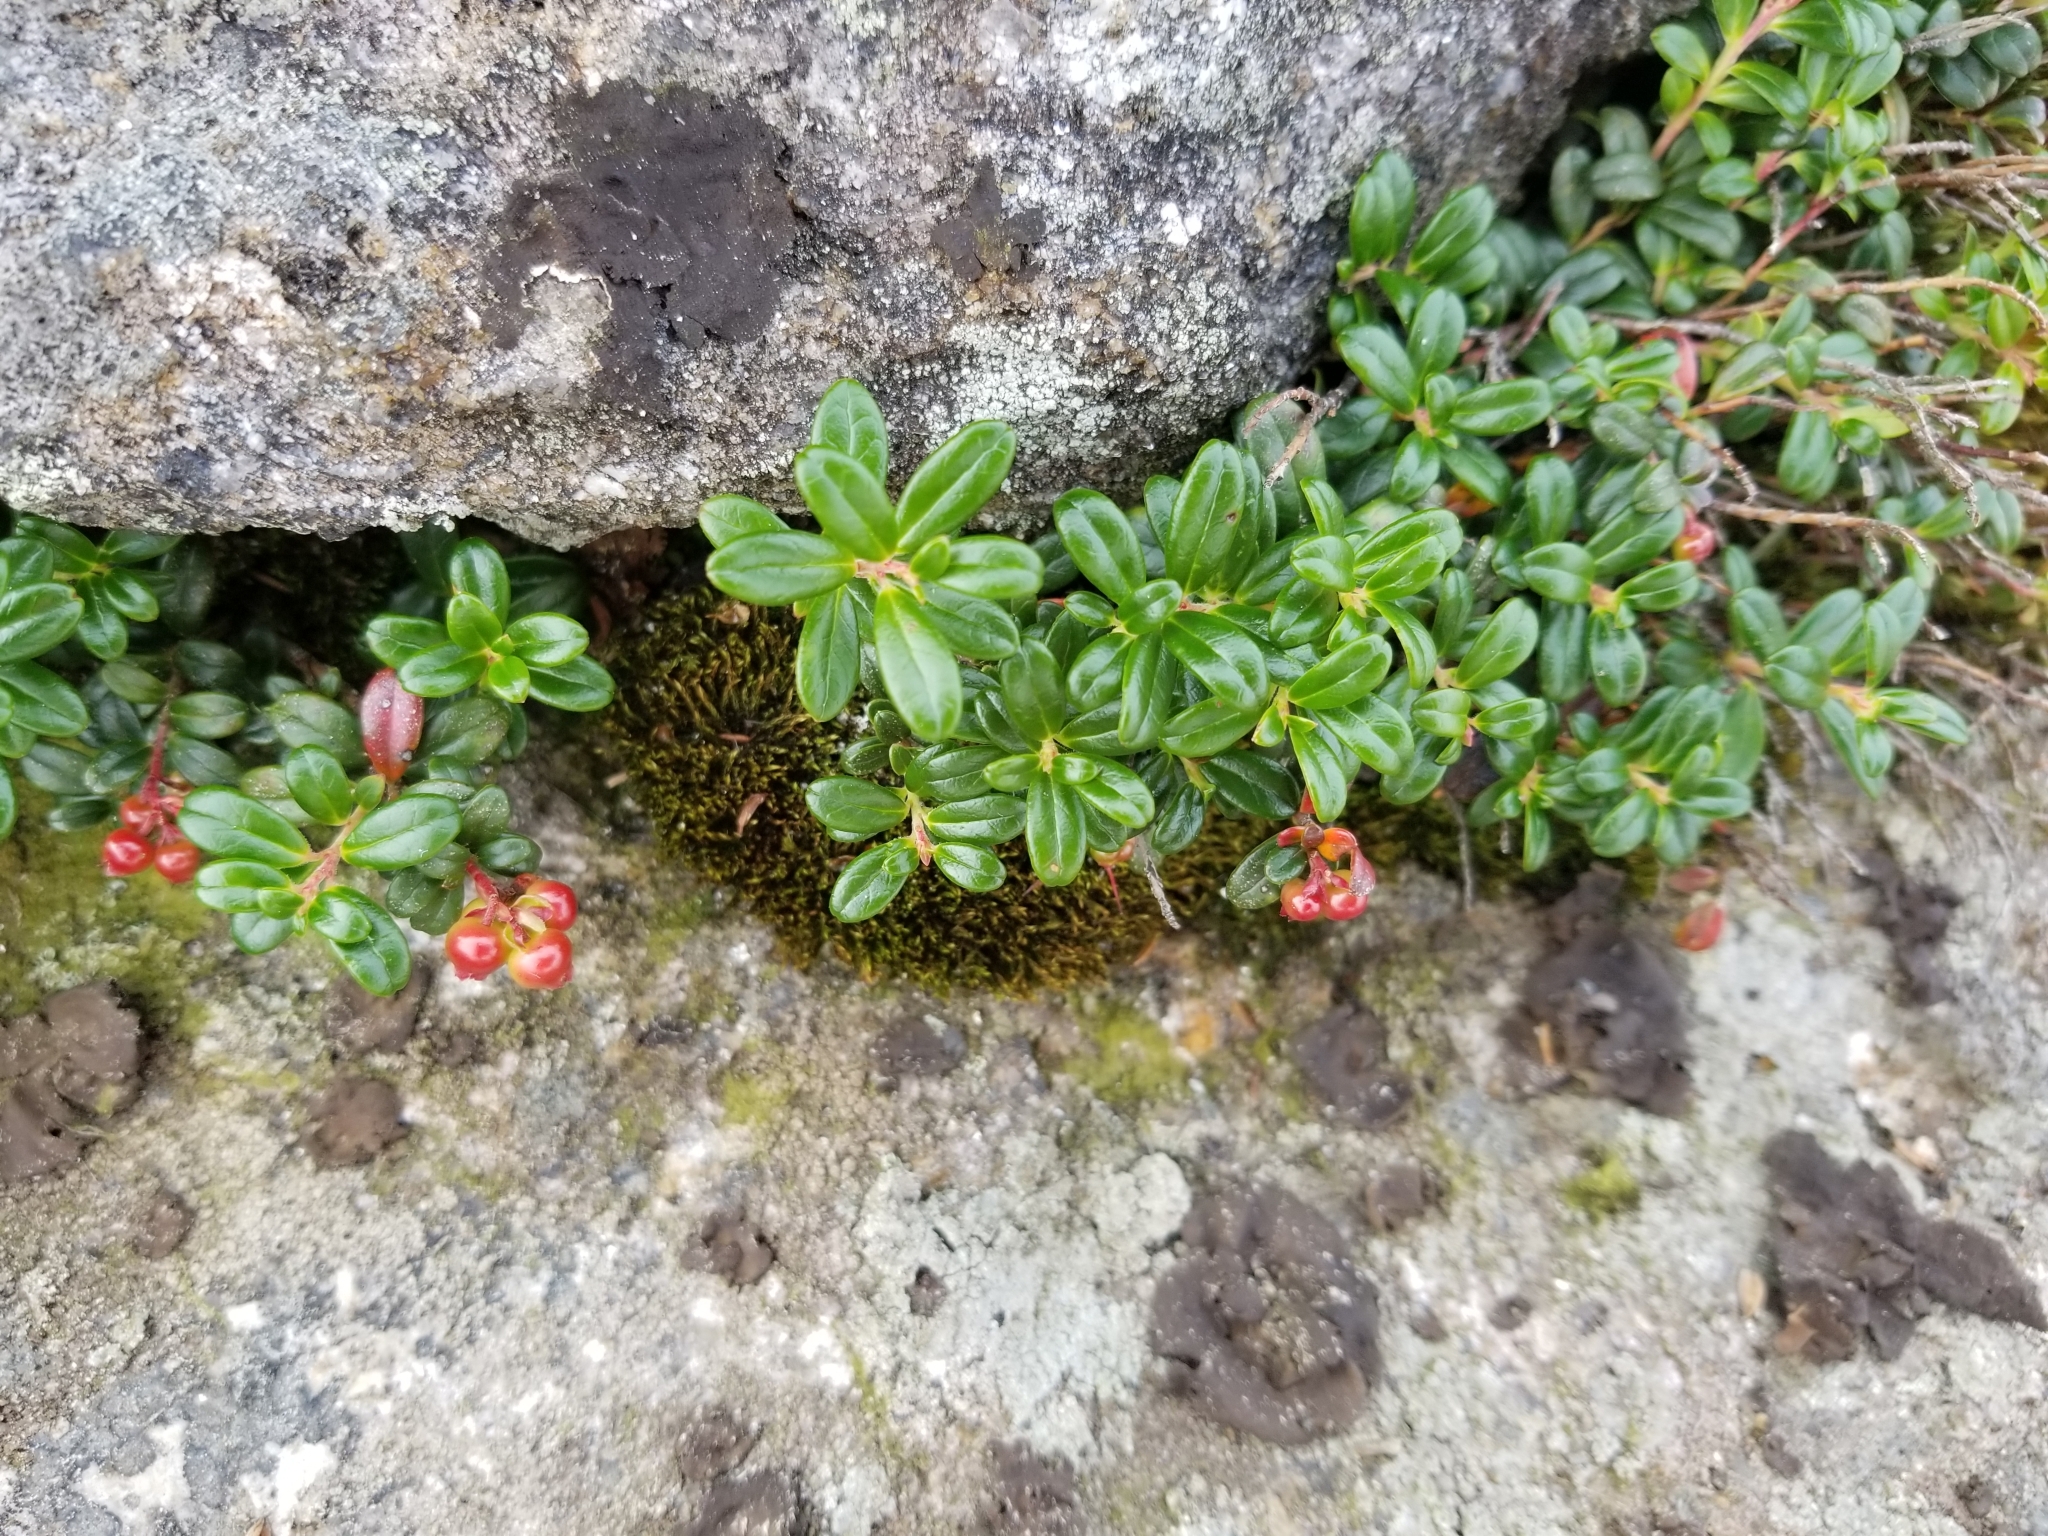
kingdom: Plantae
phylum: Tracheophyta
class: Magnoliopsida
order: Ericales
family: Ericaceae
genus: Vaccinium
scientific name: Vaccinium vitis-idaea
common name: Cowberry
